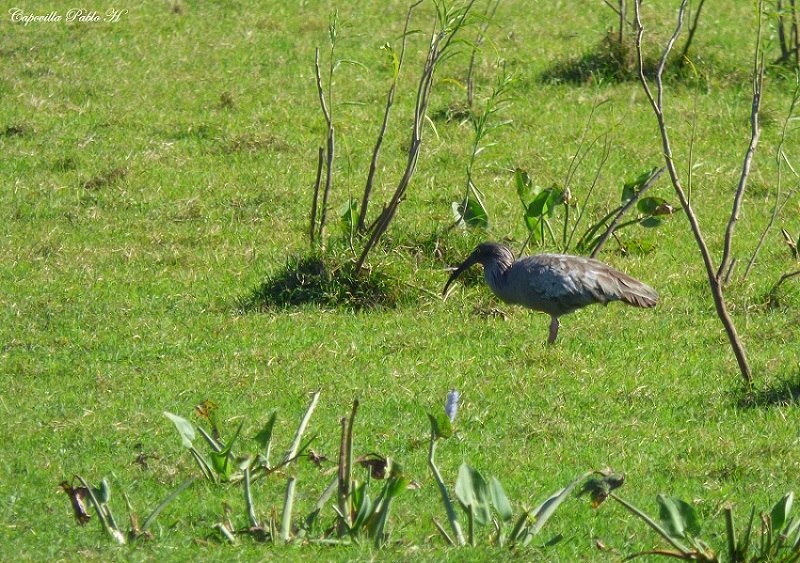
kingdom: Animalia
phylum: Chordata
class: Aves
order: Pelecaniformes
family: Threskiornithidae
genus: Theristicus
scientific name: Theristicus caerulescens
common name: Plumbeous ibis
